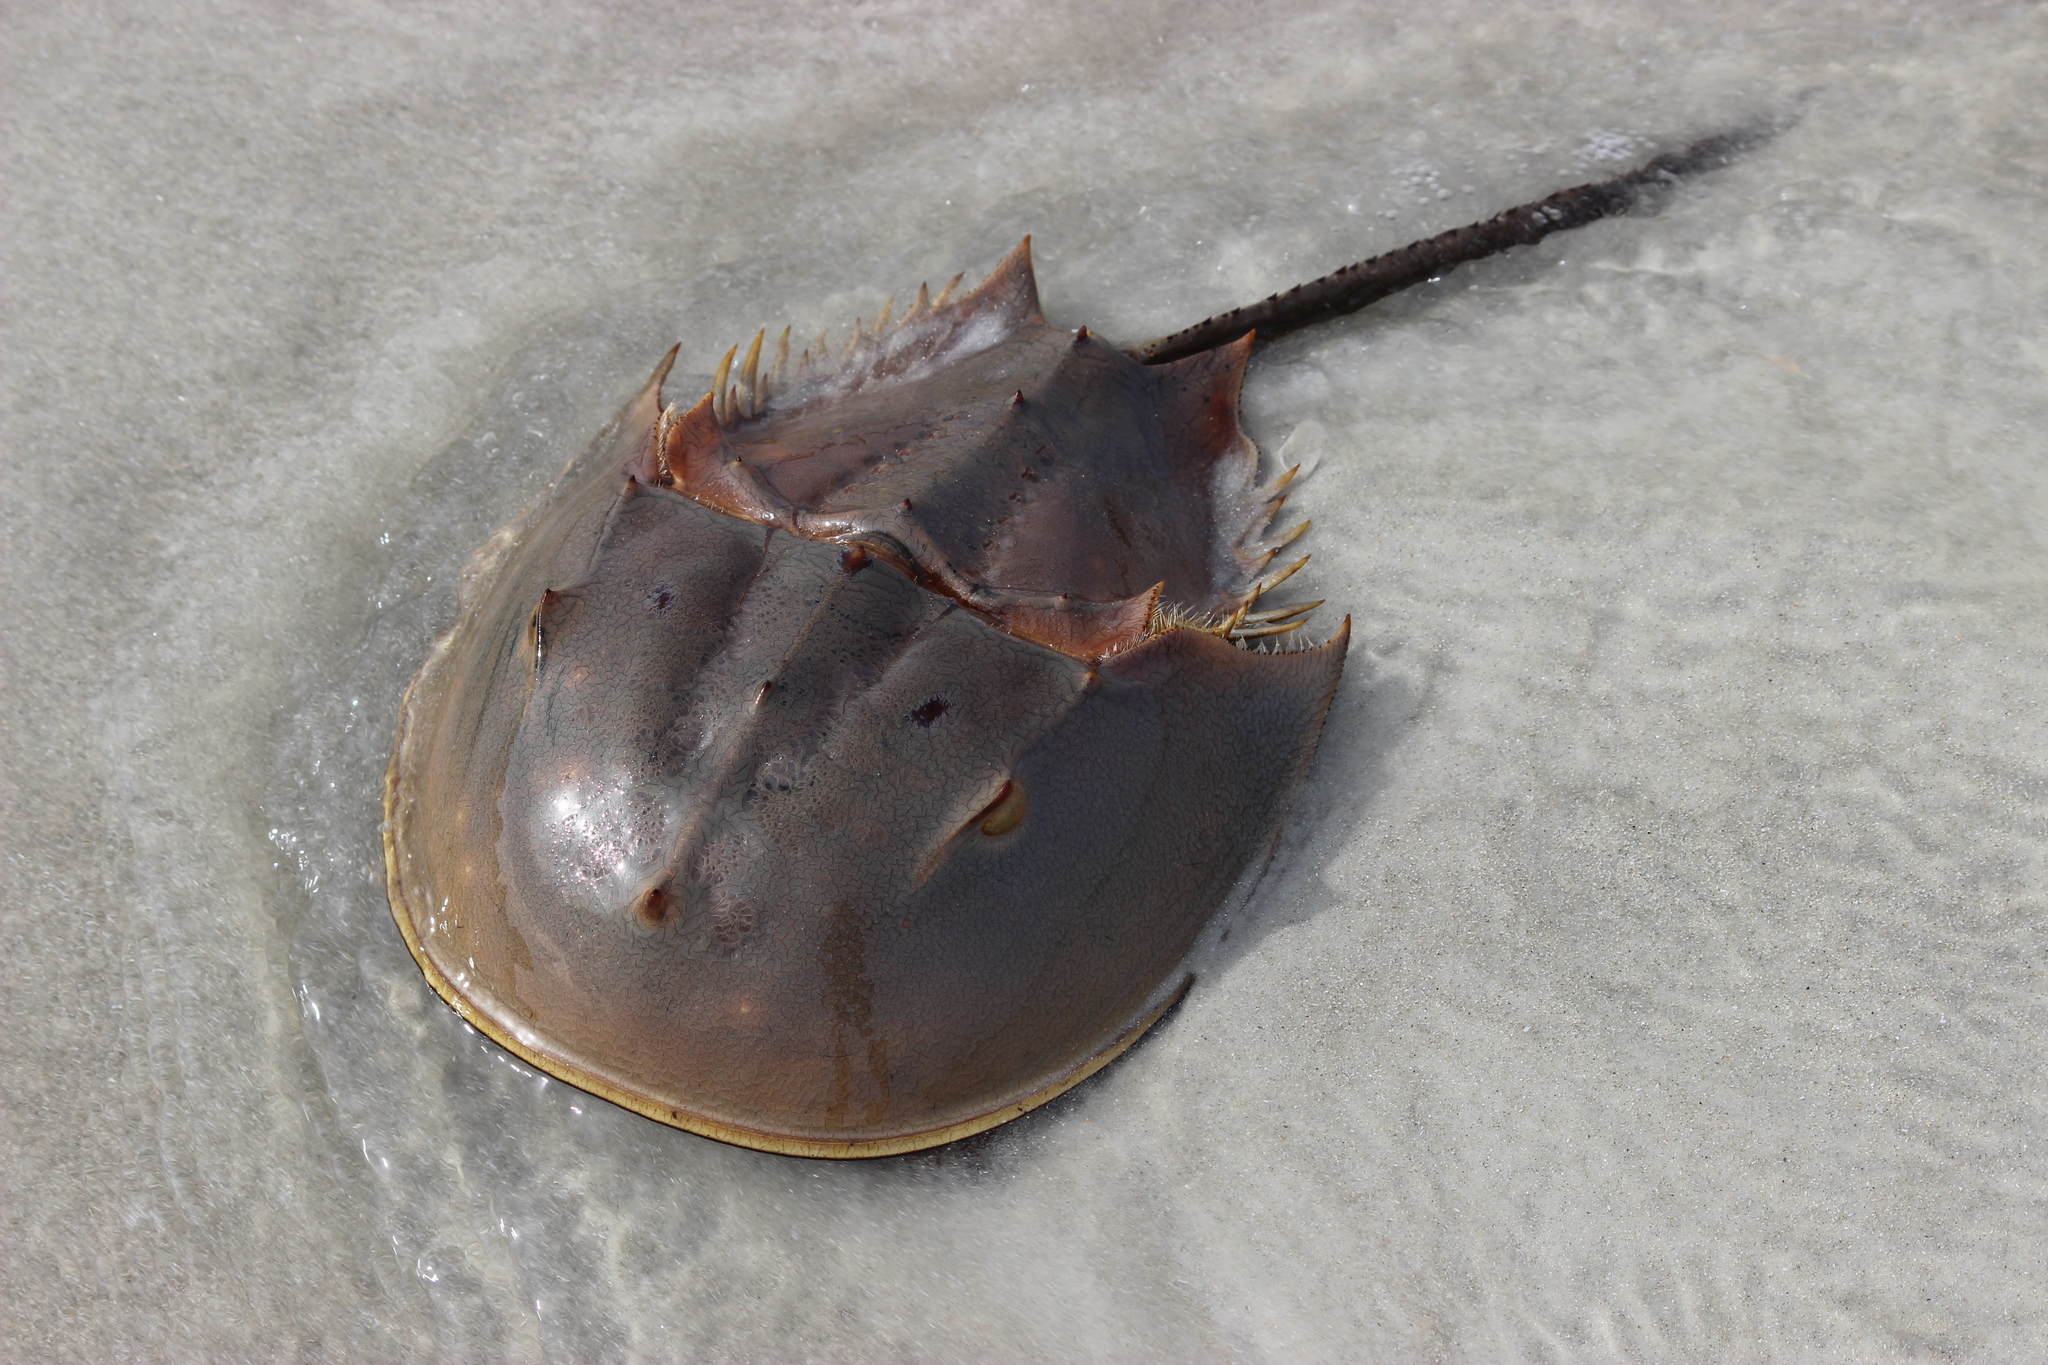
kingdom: Animalia
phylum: Arthropoda
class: Merostomata
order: Xiphosurida
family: Limulidae
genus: Limulus
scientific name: Limulus polyphemus
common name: Horseshoe crab
